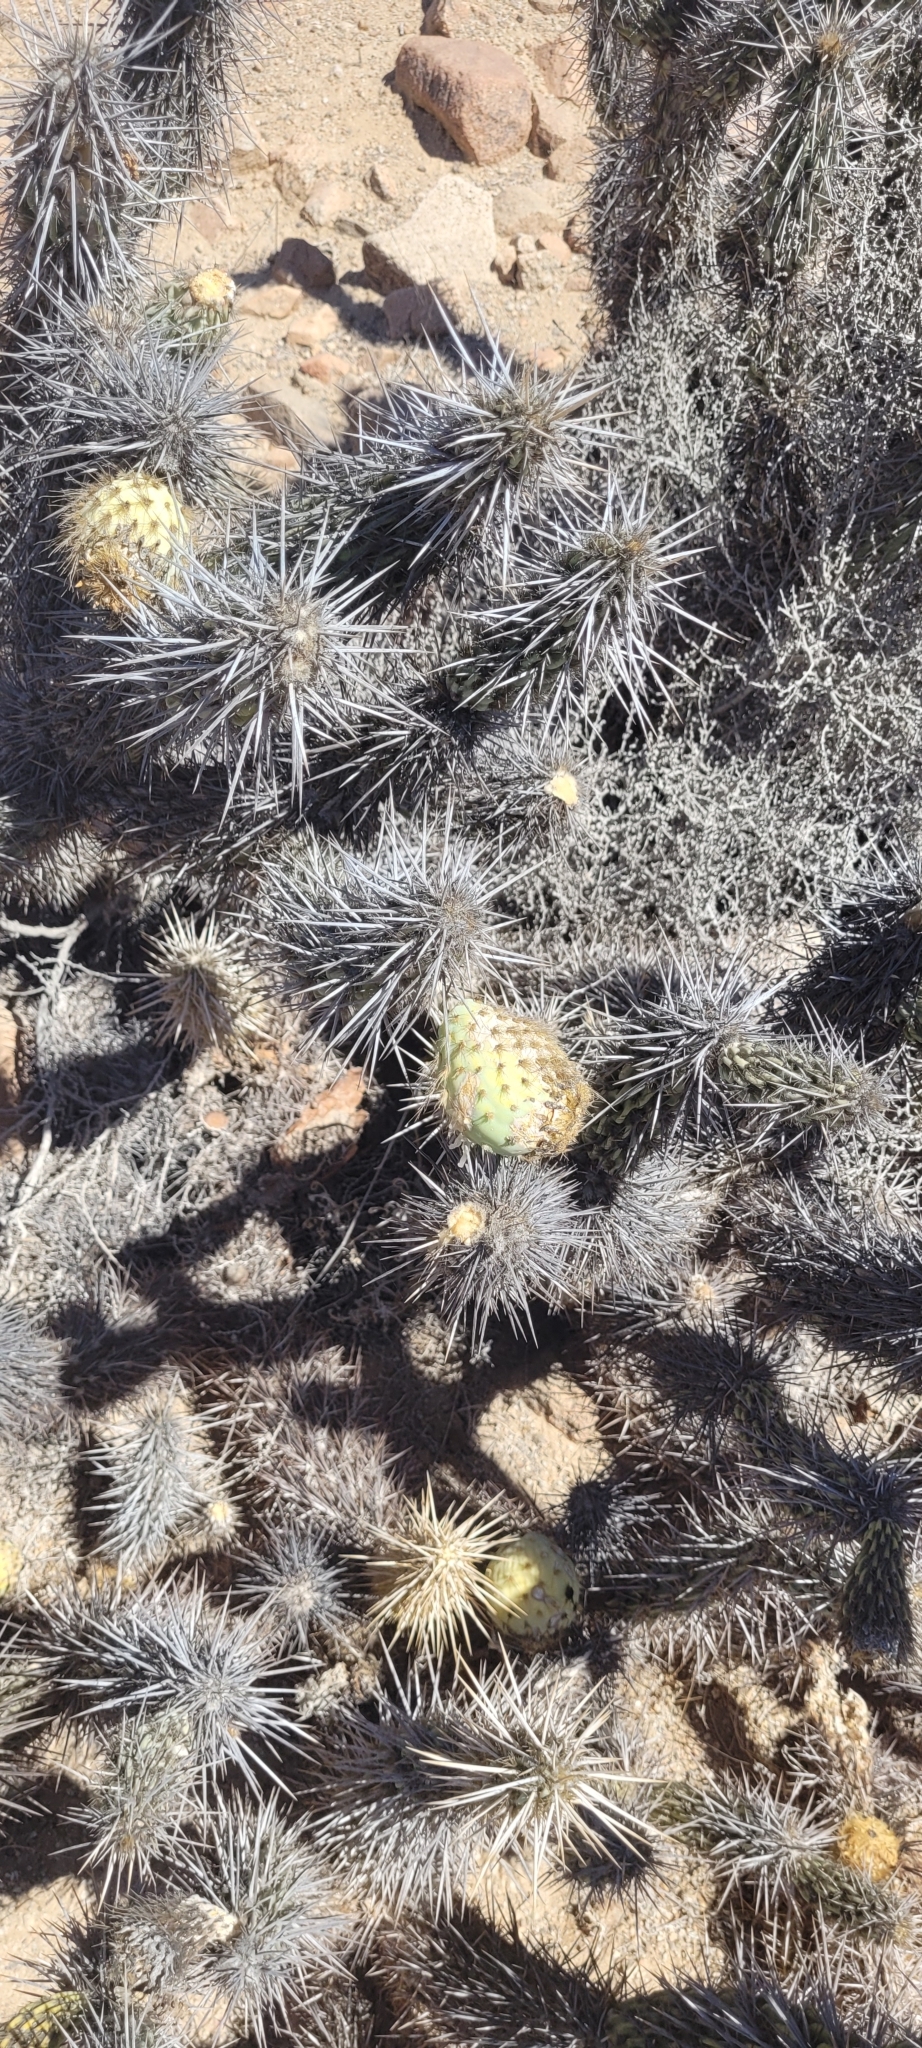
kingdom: Plantae
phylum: Tracheophyta
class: Magnoliopsida
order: Caryophyllales
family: Cactaceae
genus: Miqueliopuntia
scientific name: Miqueliopuntia miquelii
